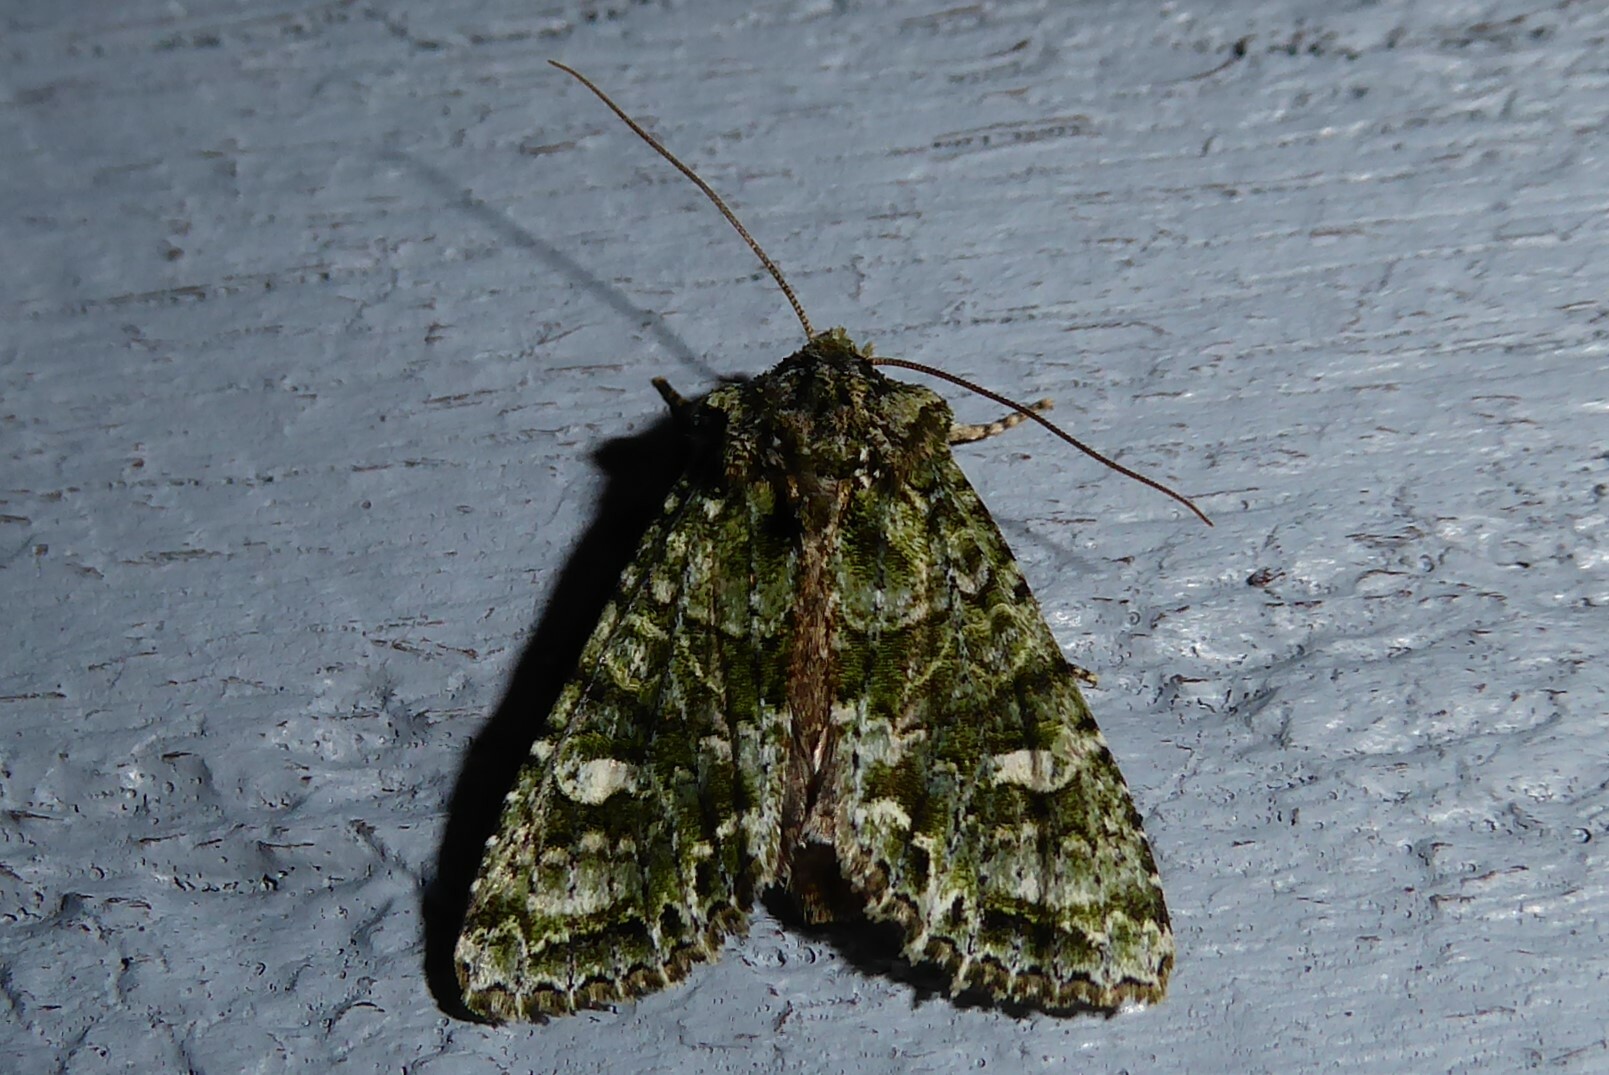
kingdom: Animalia
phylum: Arthropoda
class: Insecta
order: Lepidoptera
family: Noctuidae
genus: Ichneutica
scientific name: Ichneutica
